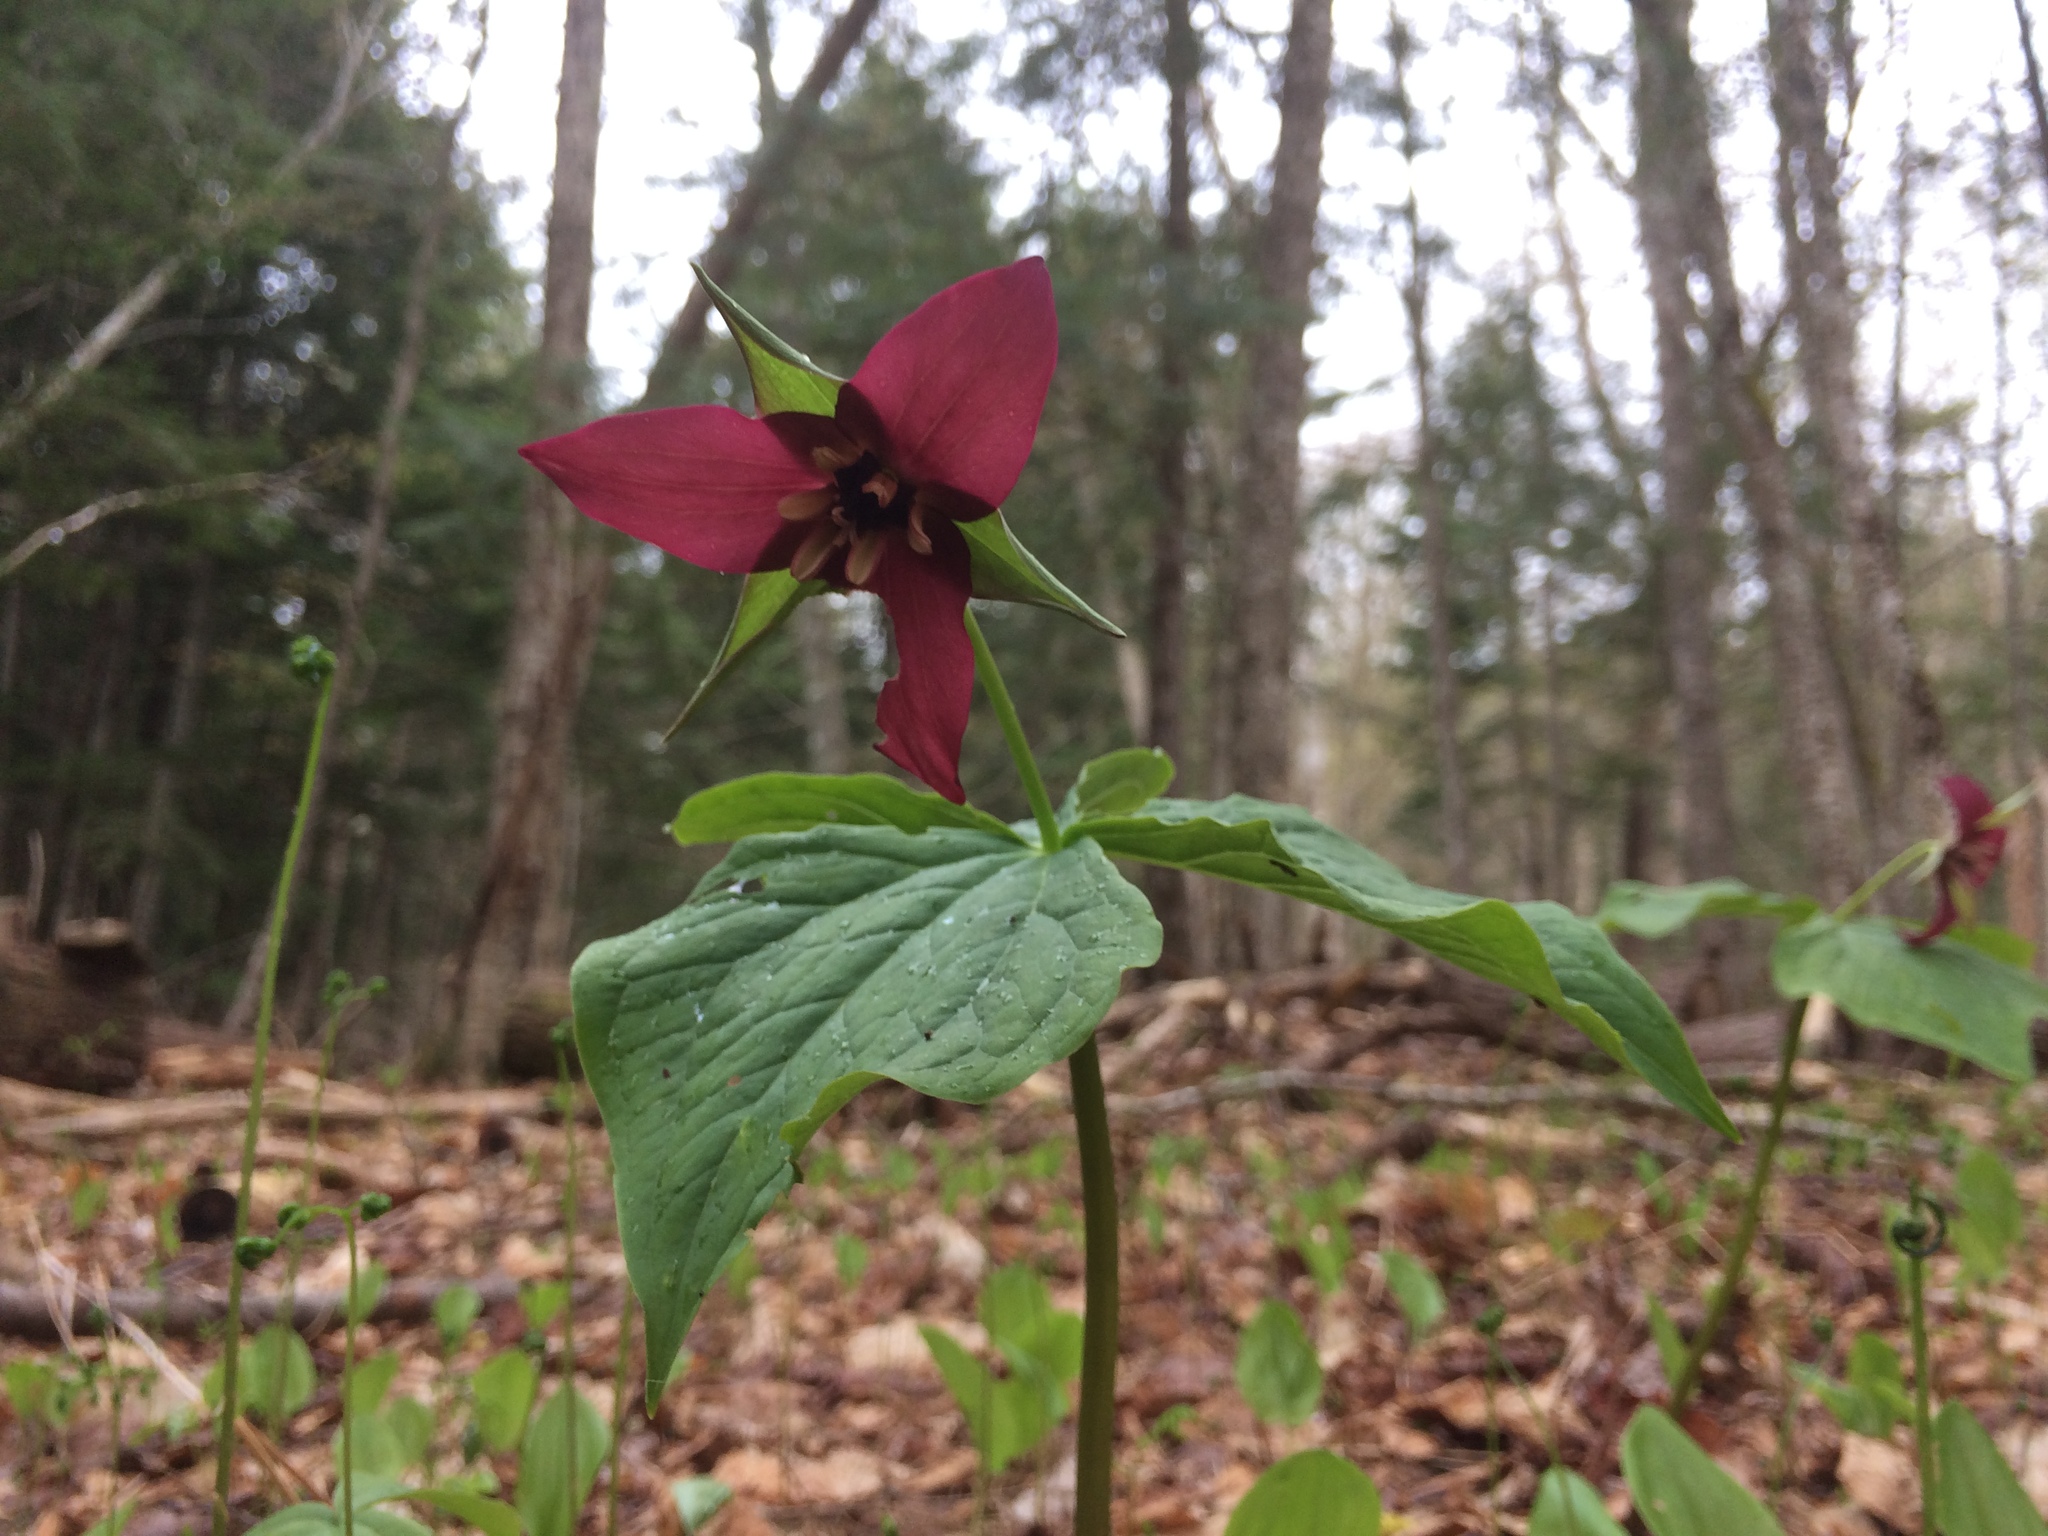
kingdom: Plantae
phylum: Tracheophyta
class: Liliopsida
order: Liliales
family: Melanthiaceae
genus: Trillium
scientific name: Trillium erectum
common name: Purple trillium
